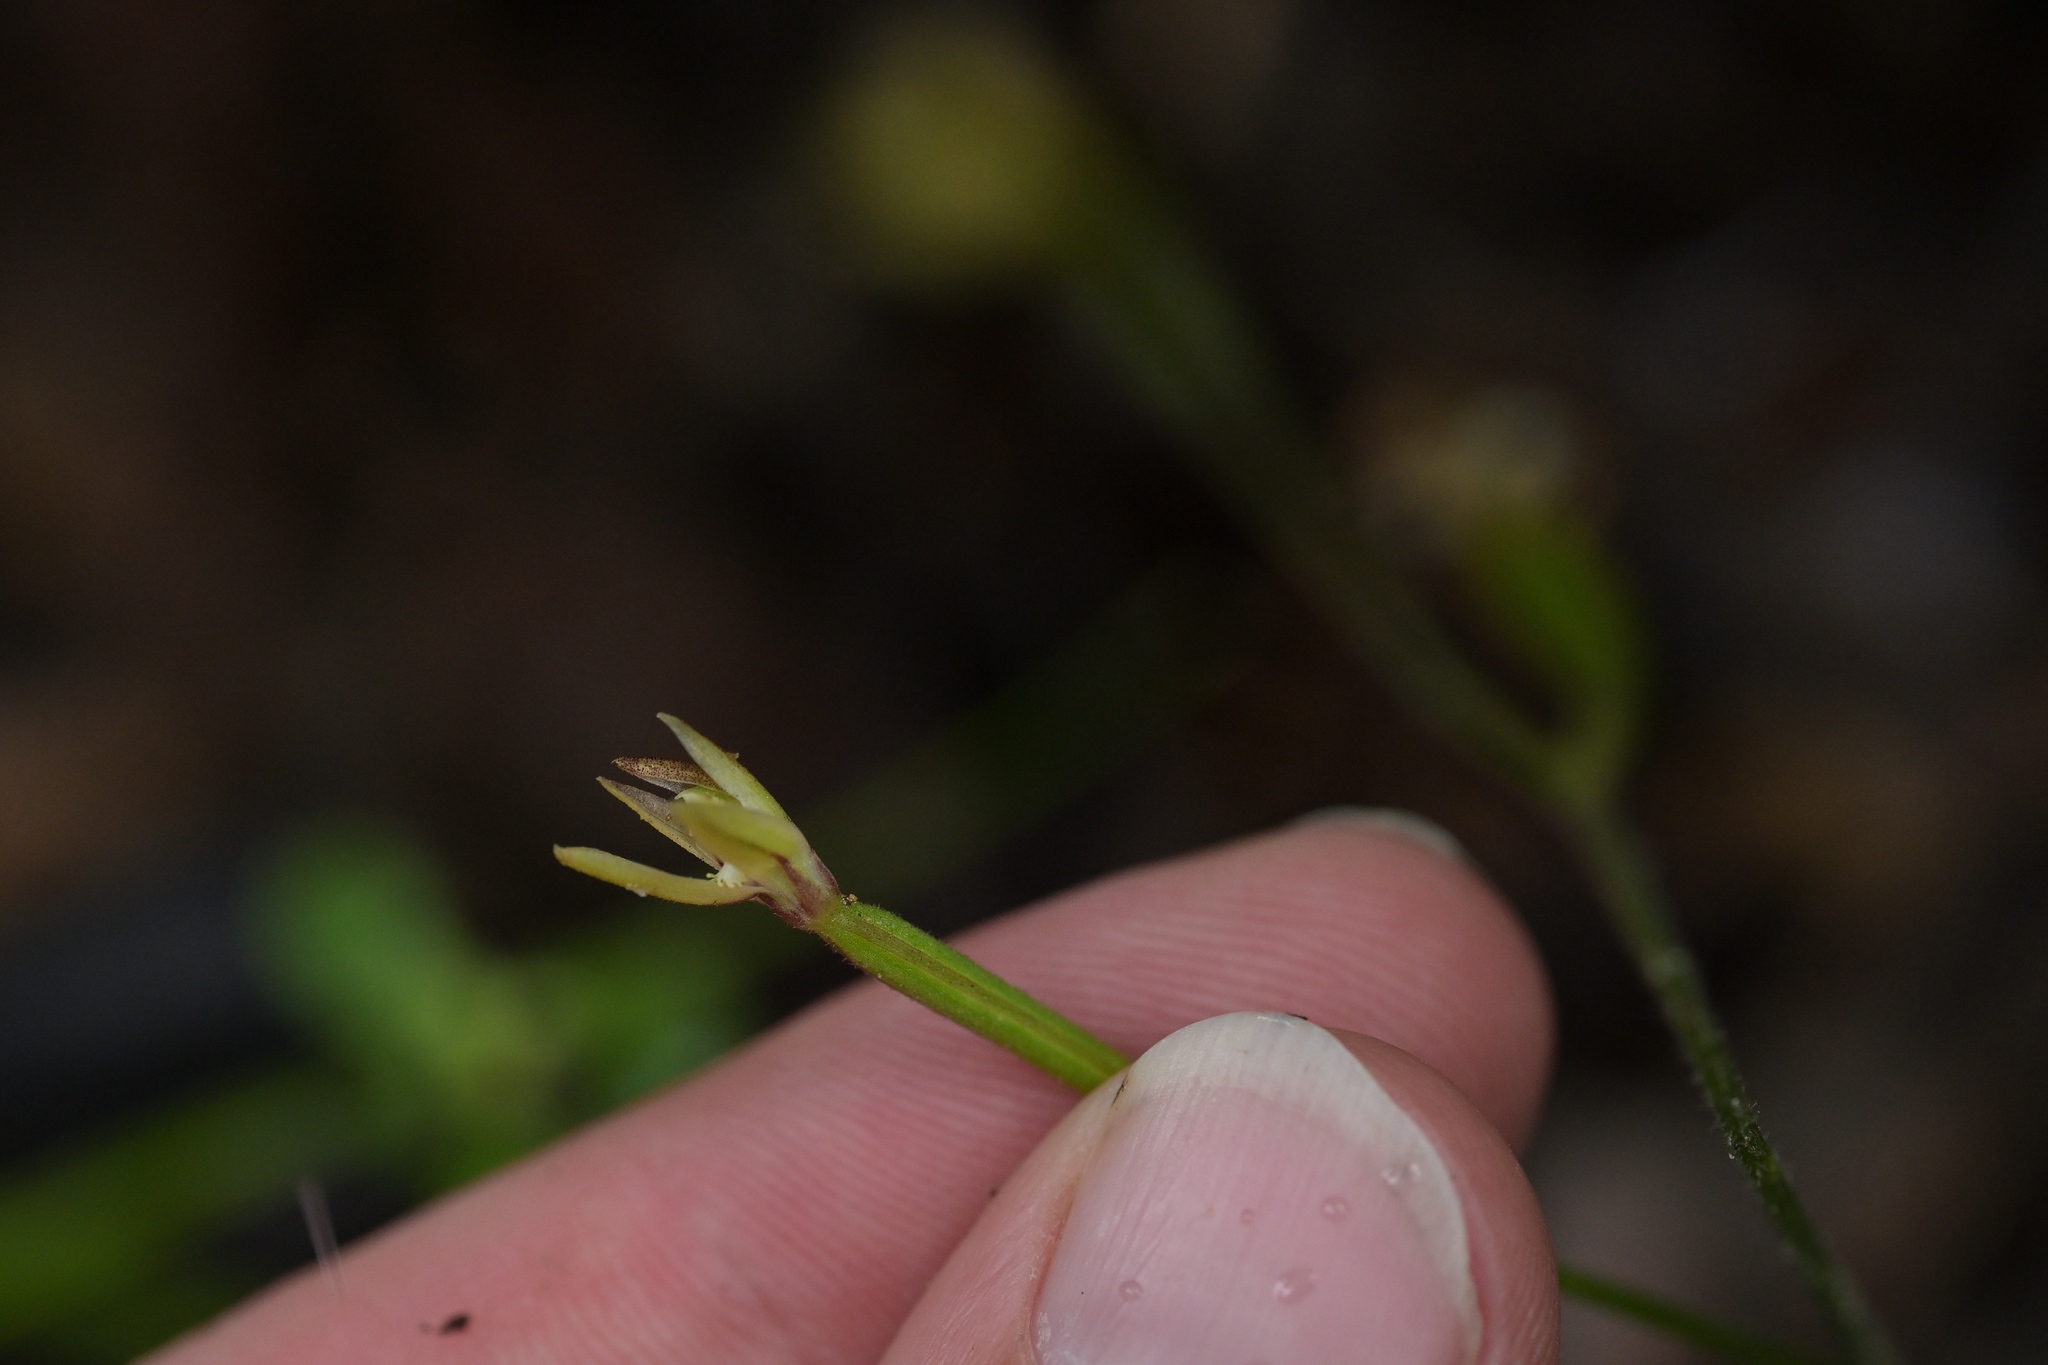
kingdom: Plantae
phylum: Tracheophyta
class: Liliopsida
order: Asparagales
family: Orchidaceae
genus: Caladenia
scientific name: Caladenia chlorostyla
